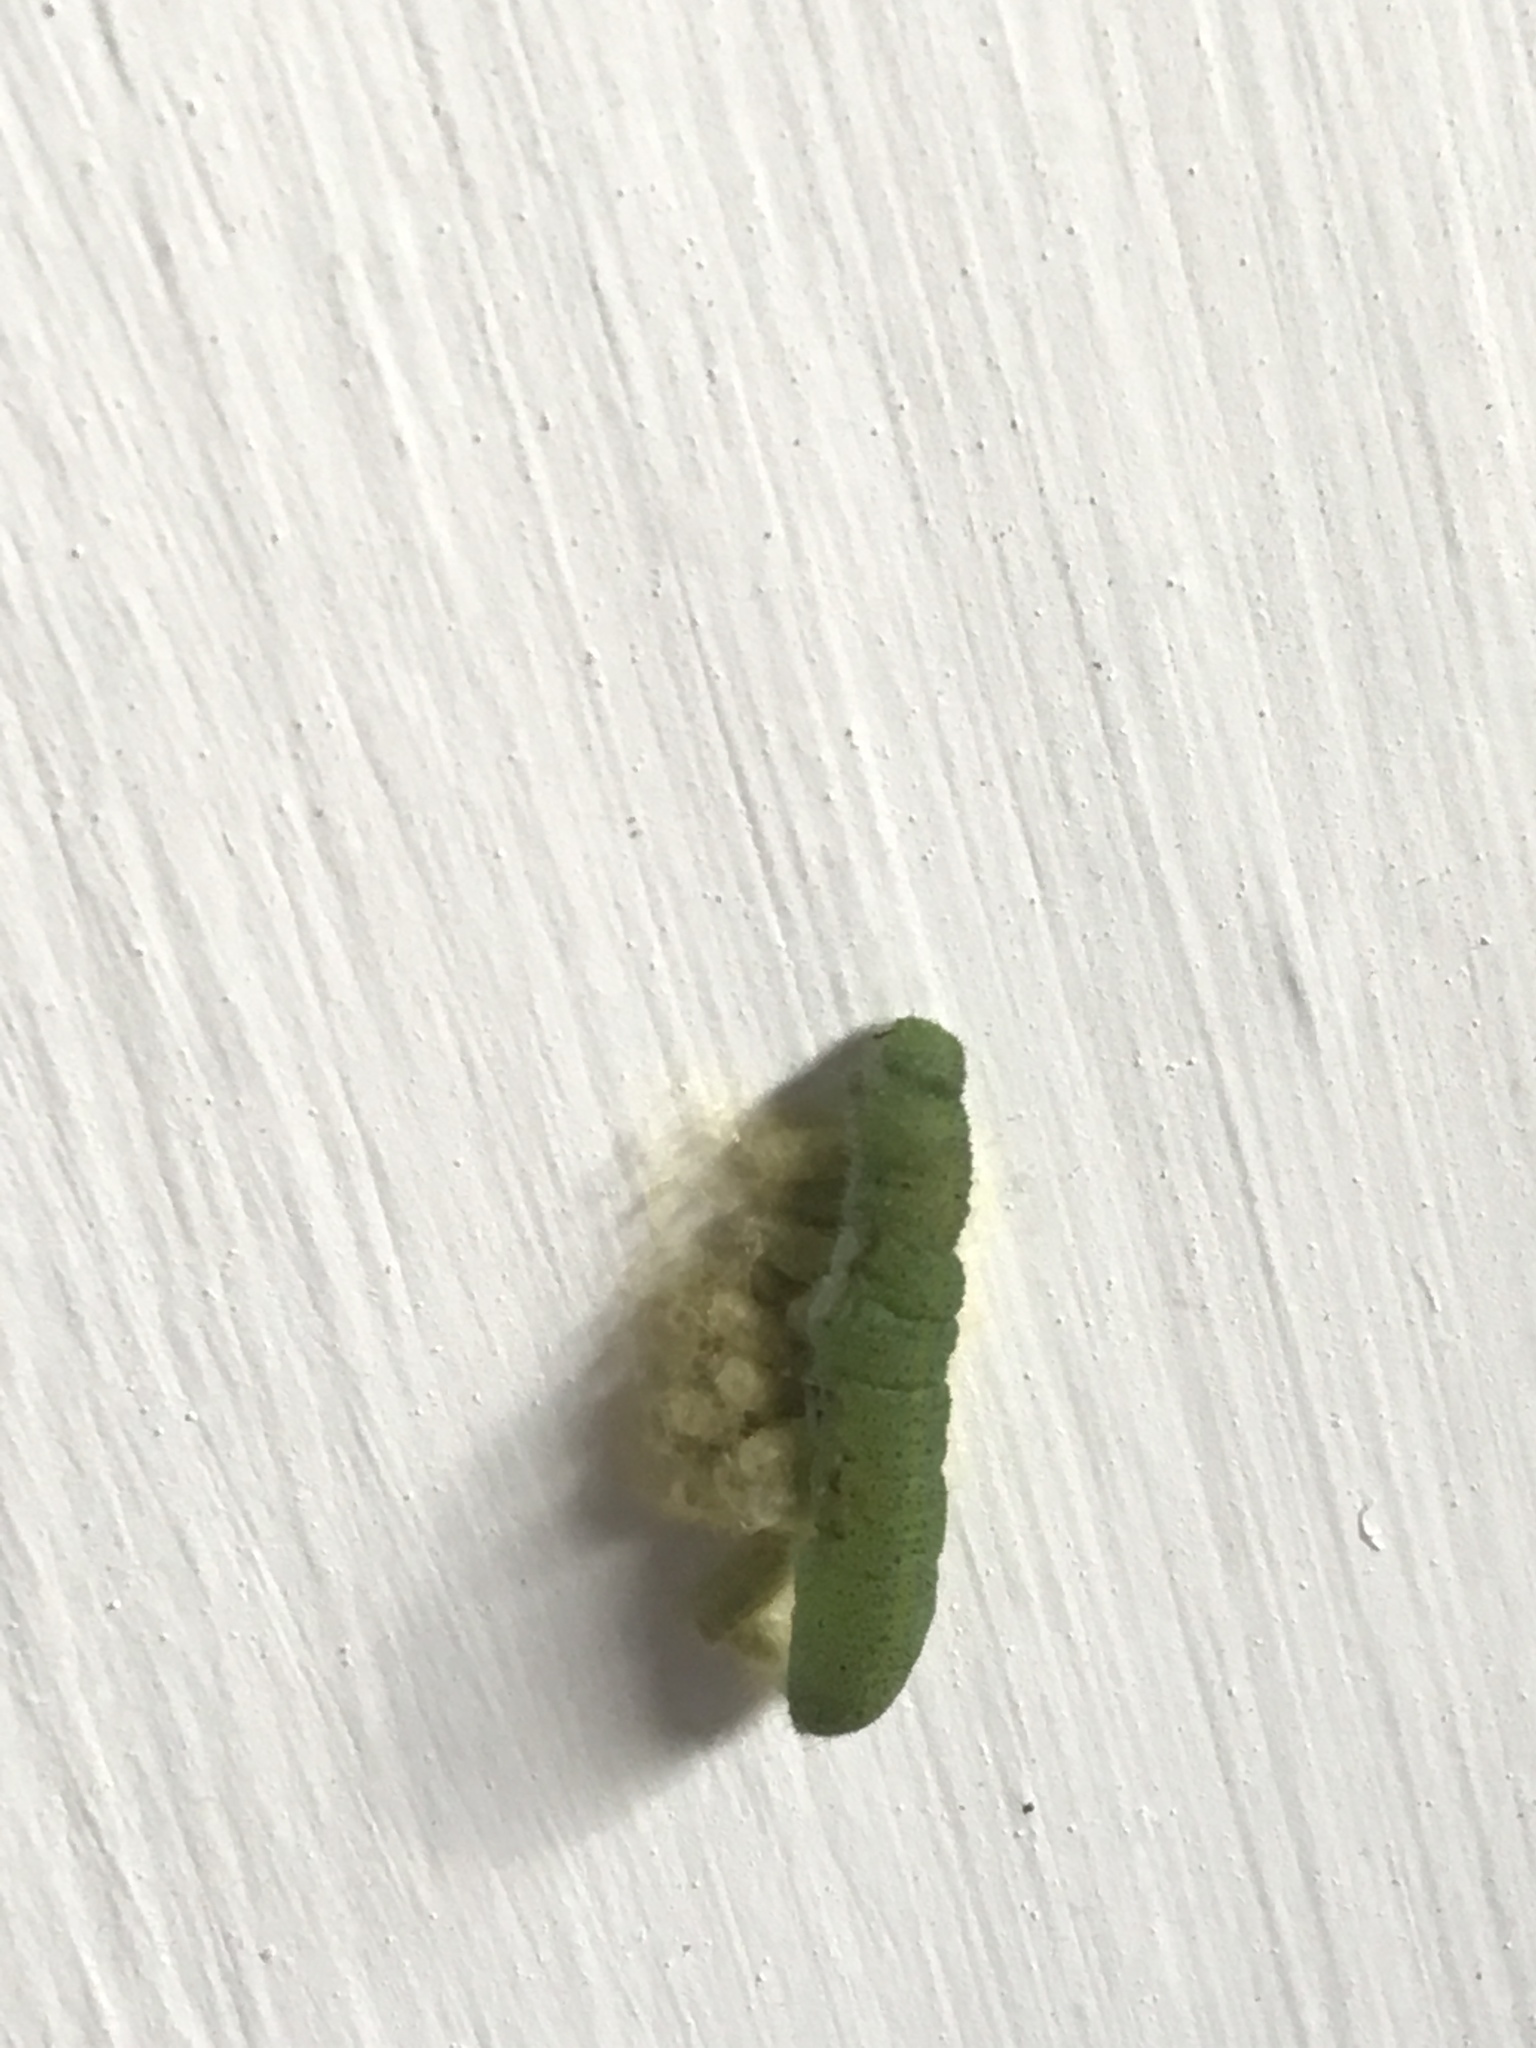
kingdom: Animalia
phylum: Arthropoda
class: Insecta
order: Lepidoptera
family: Pieridae
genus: Pieris
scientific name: Pieris rapae
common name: Small white
